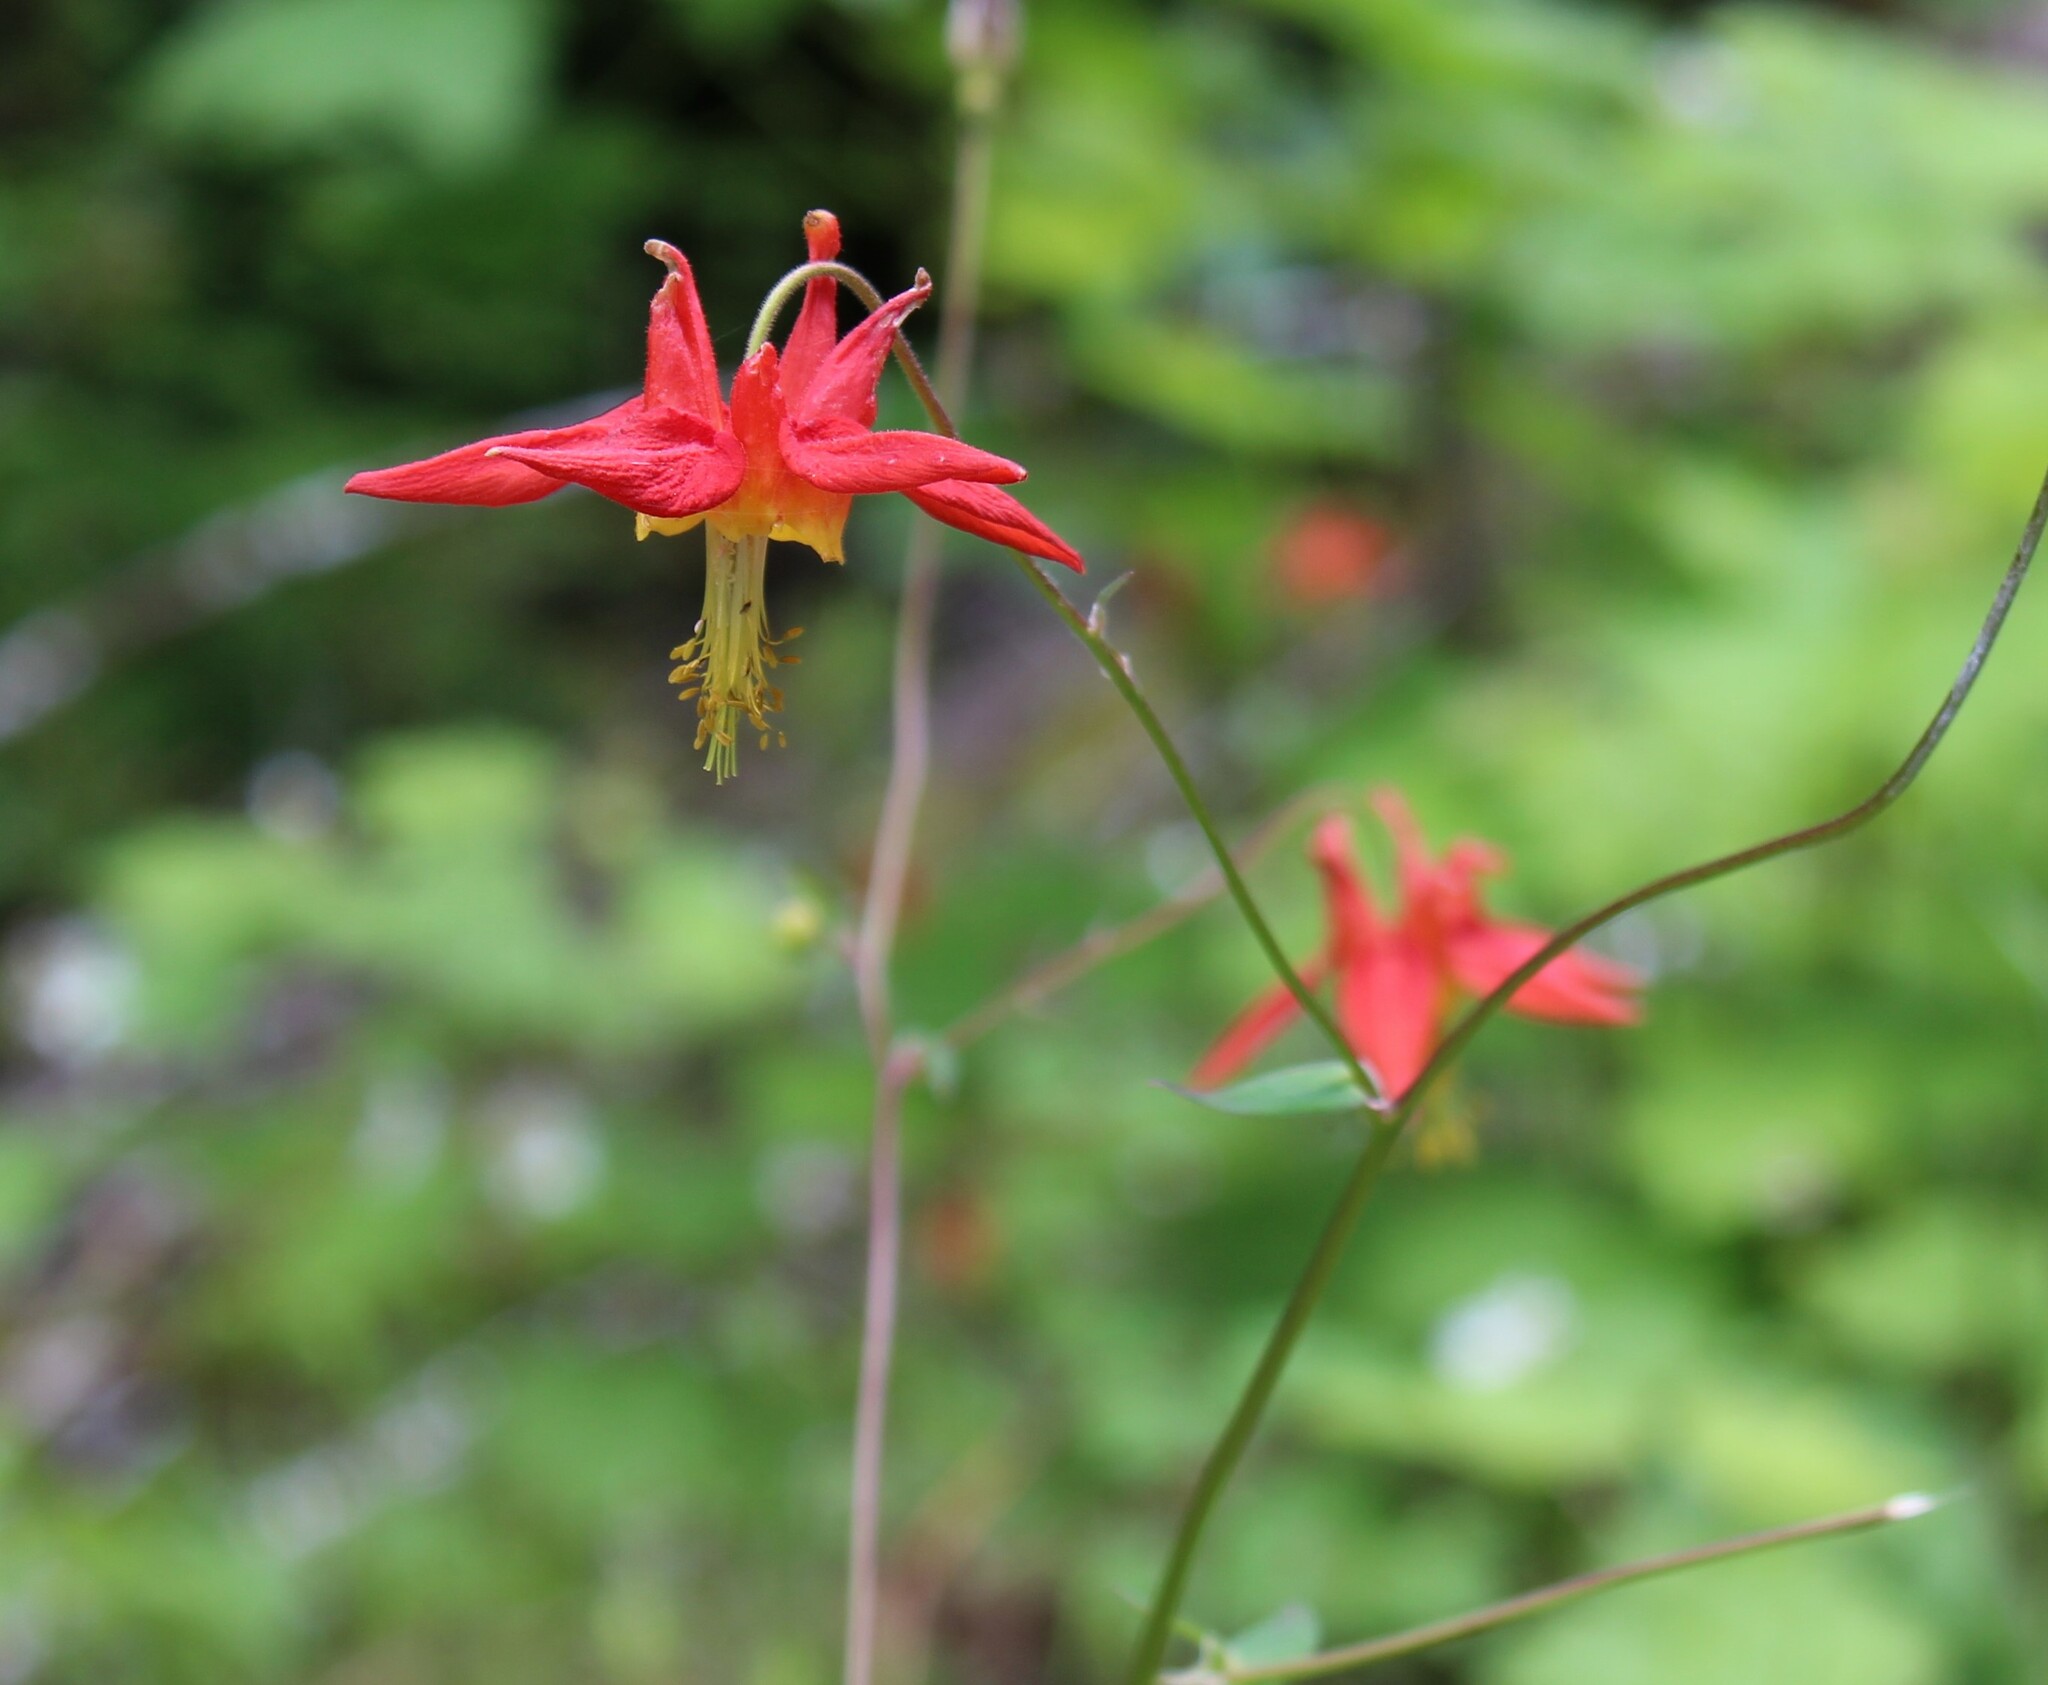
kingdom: Plantae
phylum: Tracheophyta
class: Magnoliopsida
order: Ranunculales
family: Ranunculaceae
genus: Aquilegia
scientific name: Aquilegia formosa
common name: Sitka columbine
